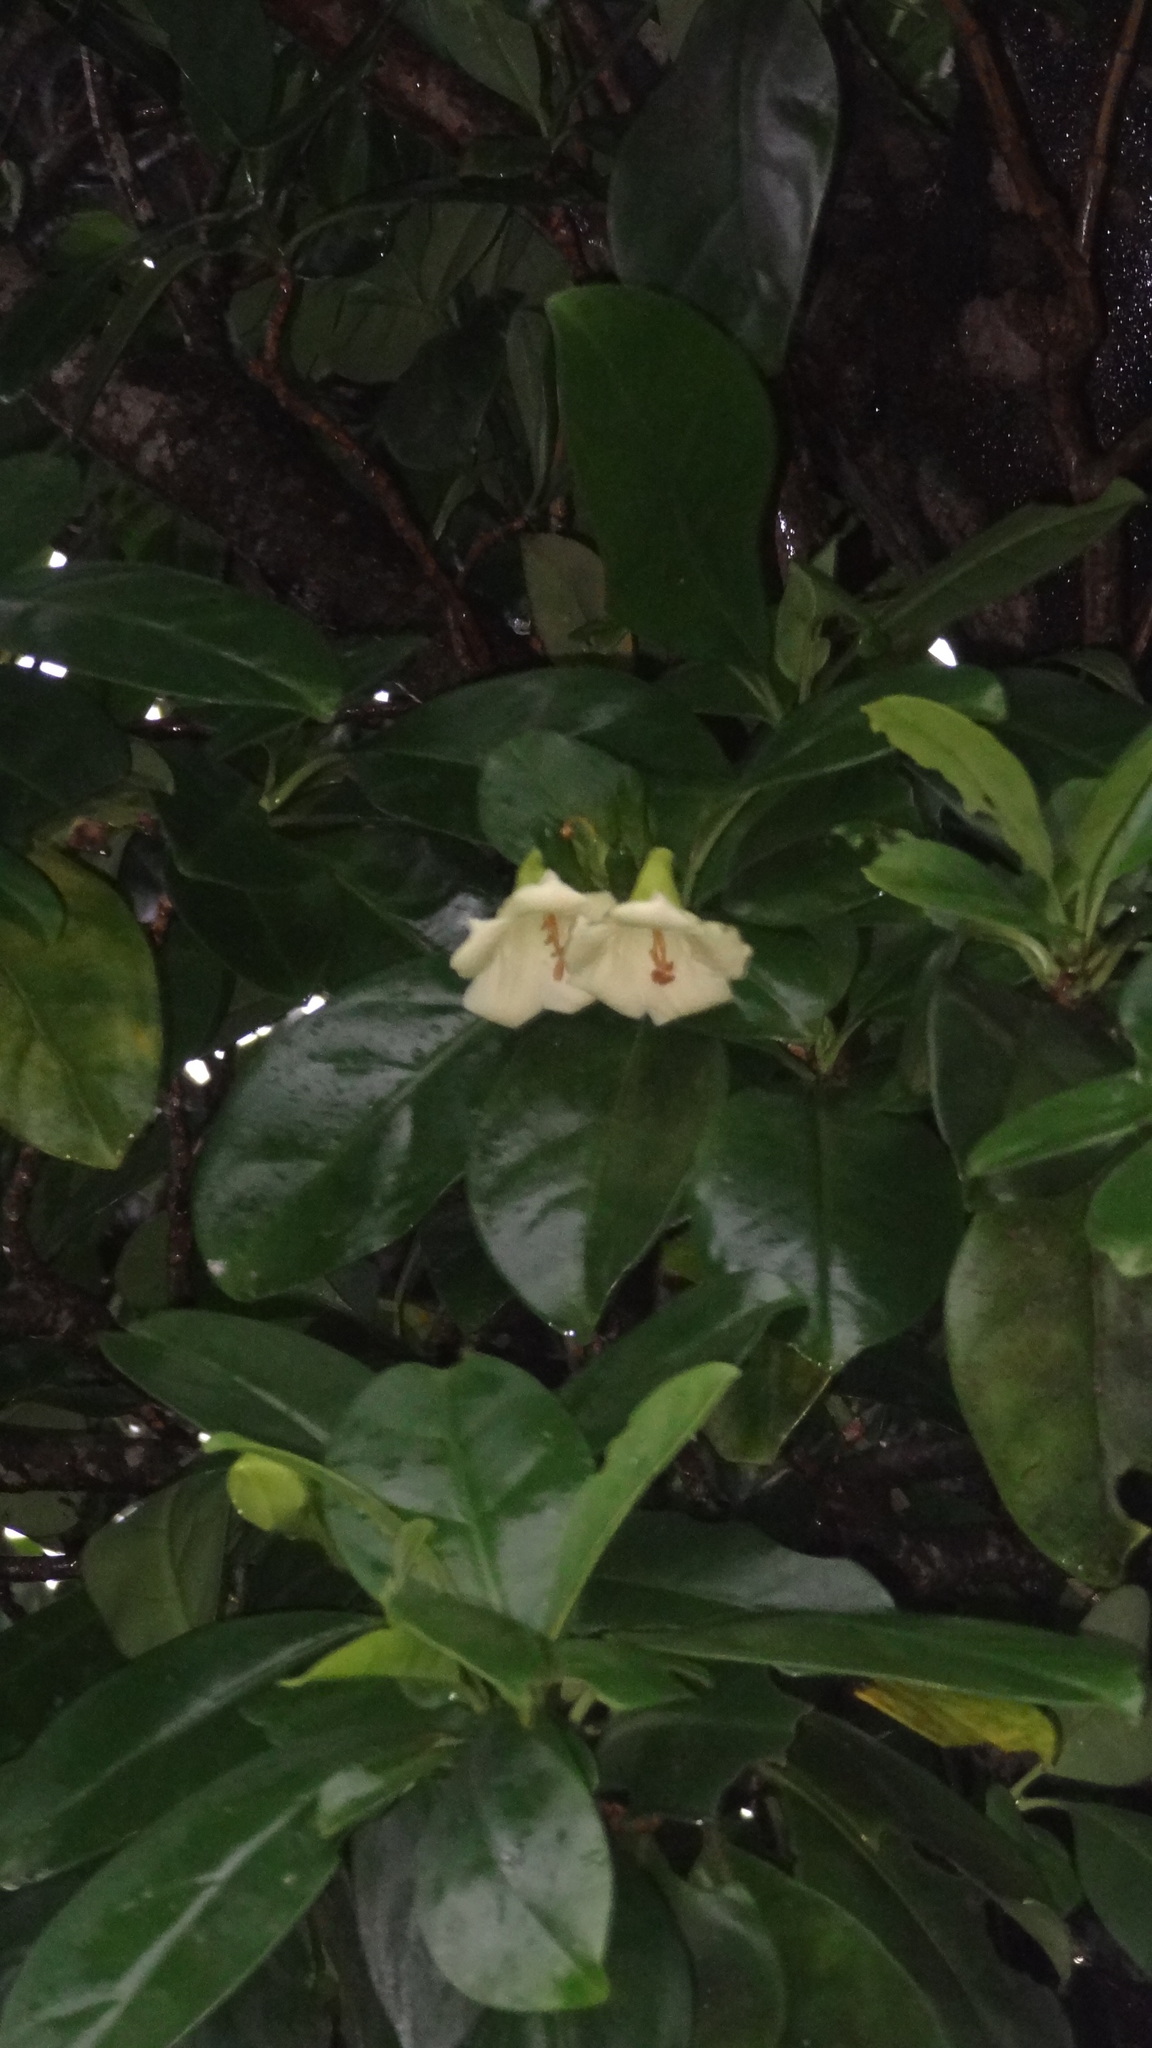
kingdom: Plantae
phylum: Tracheophyta
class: Magnoliopsida
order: Gentianales
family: Gentianaceae
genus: Fagraea
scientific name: Fagraea ceilanica
